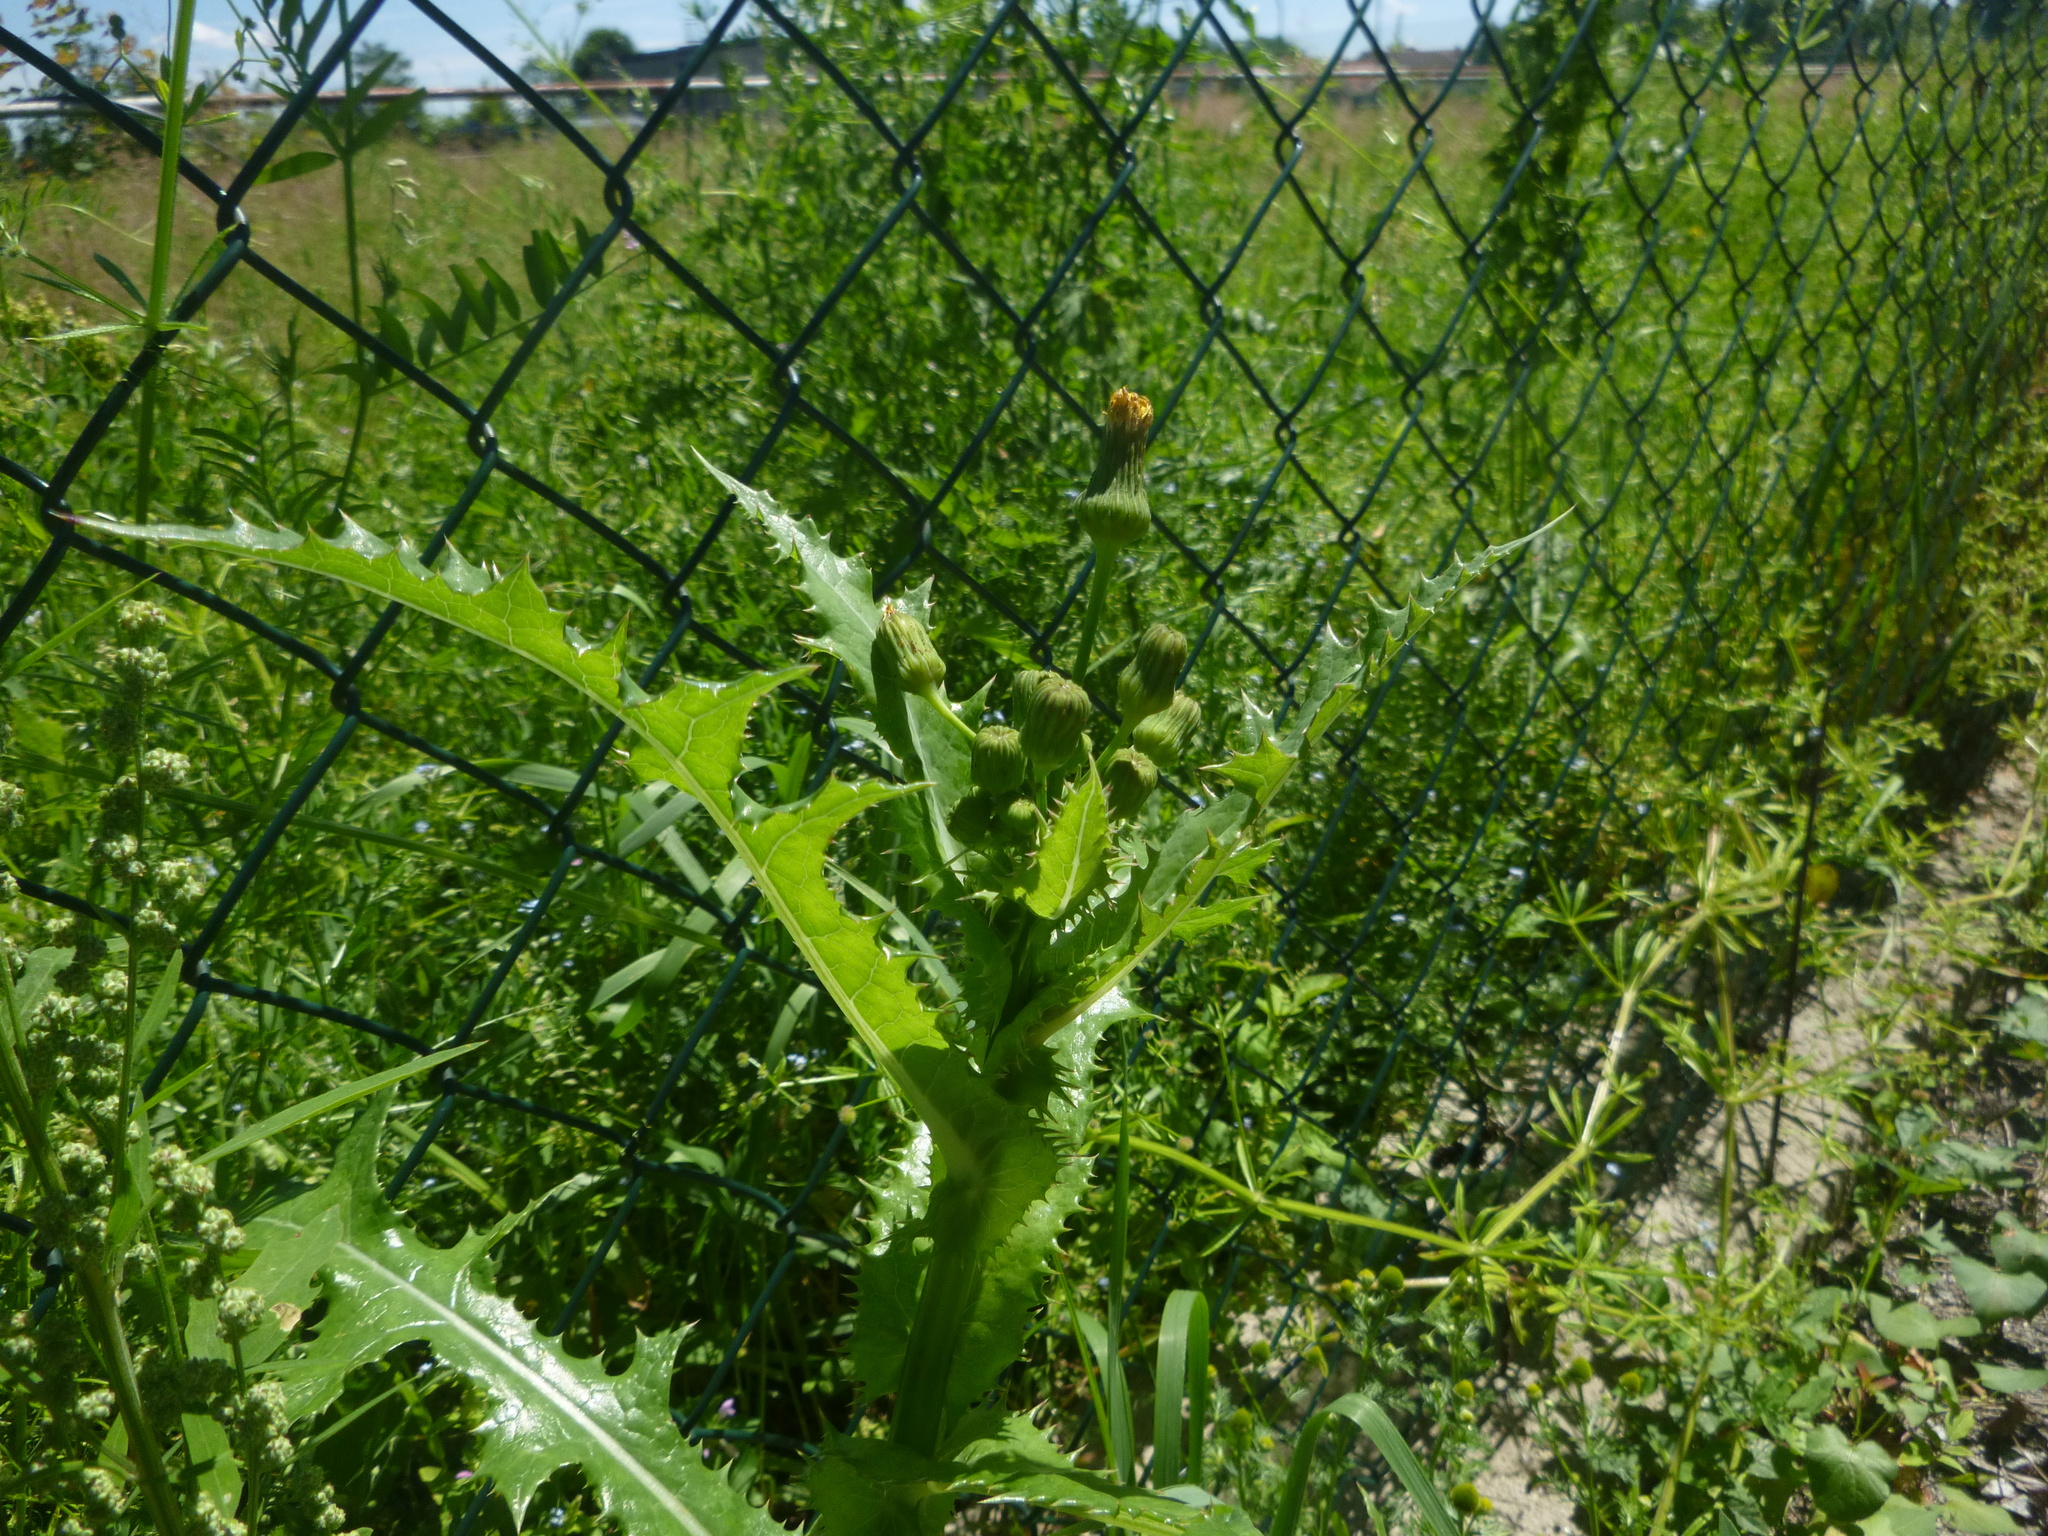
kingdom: Plantae
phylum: Tracheophyta
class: Magnoliopsida
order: Asterales
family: Asteraceae
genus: Sonchus
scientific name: Sonchus asper
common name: Prickly sow-thistle
